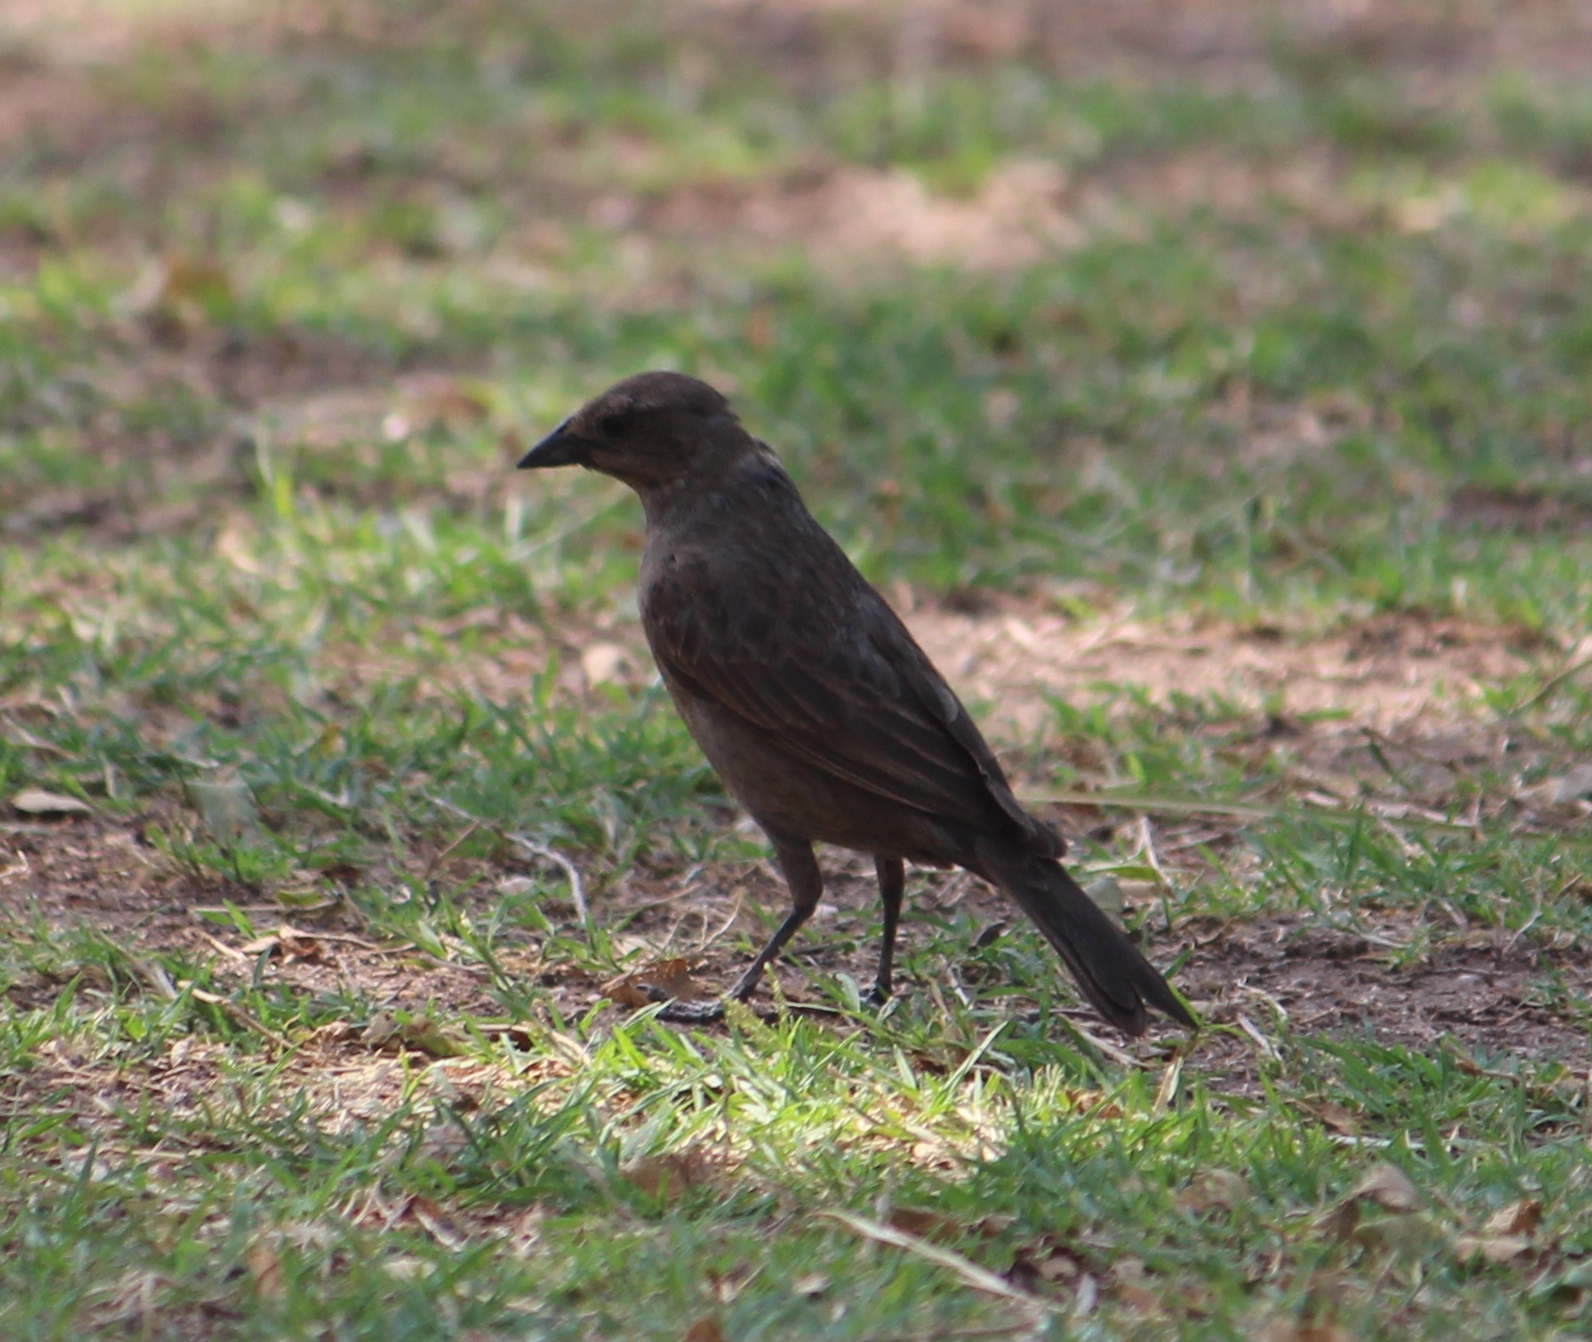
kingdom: Animalia
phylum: Chordata
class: Aves
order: Passeriformes
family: Icteridae
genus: Molothrus
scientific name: Molothrus bonariensis
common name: Shiny cowbird
